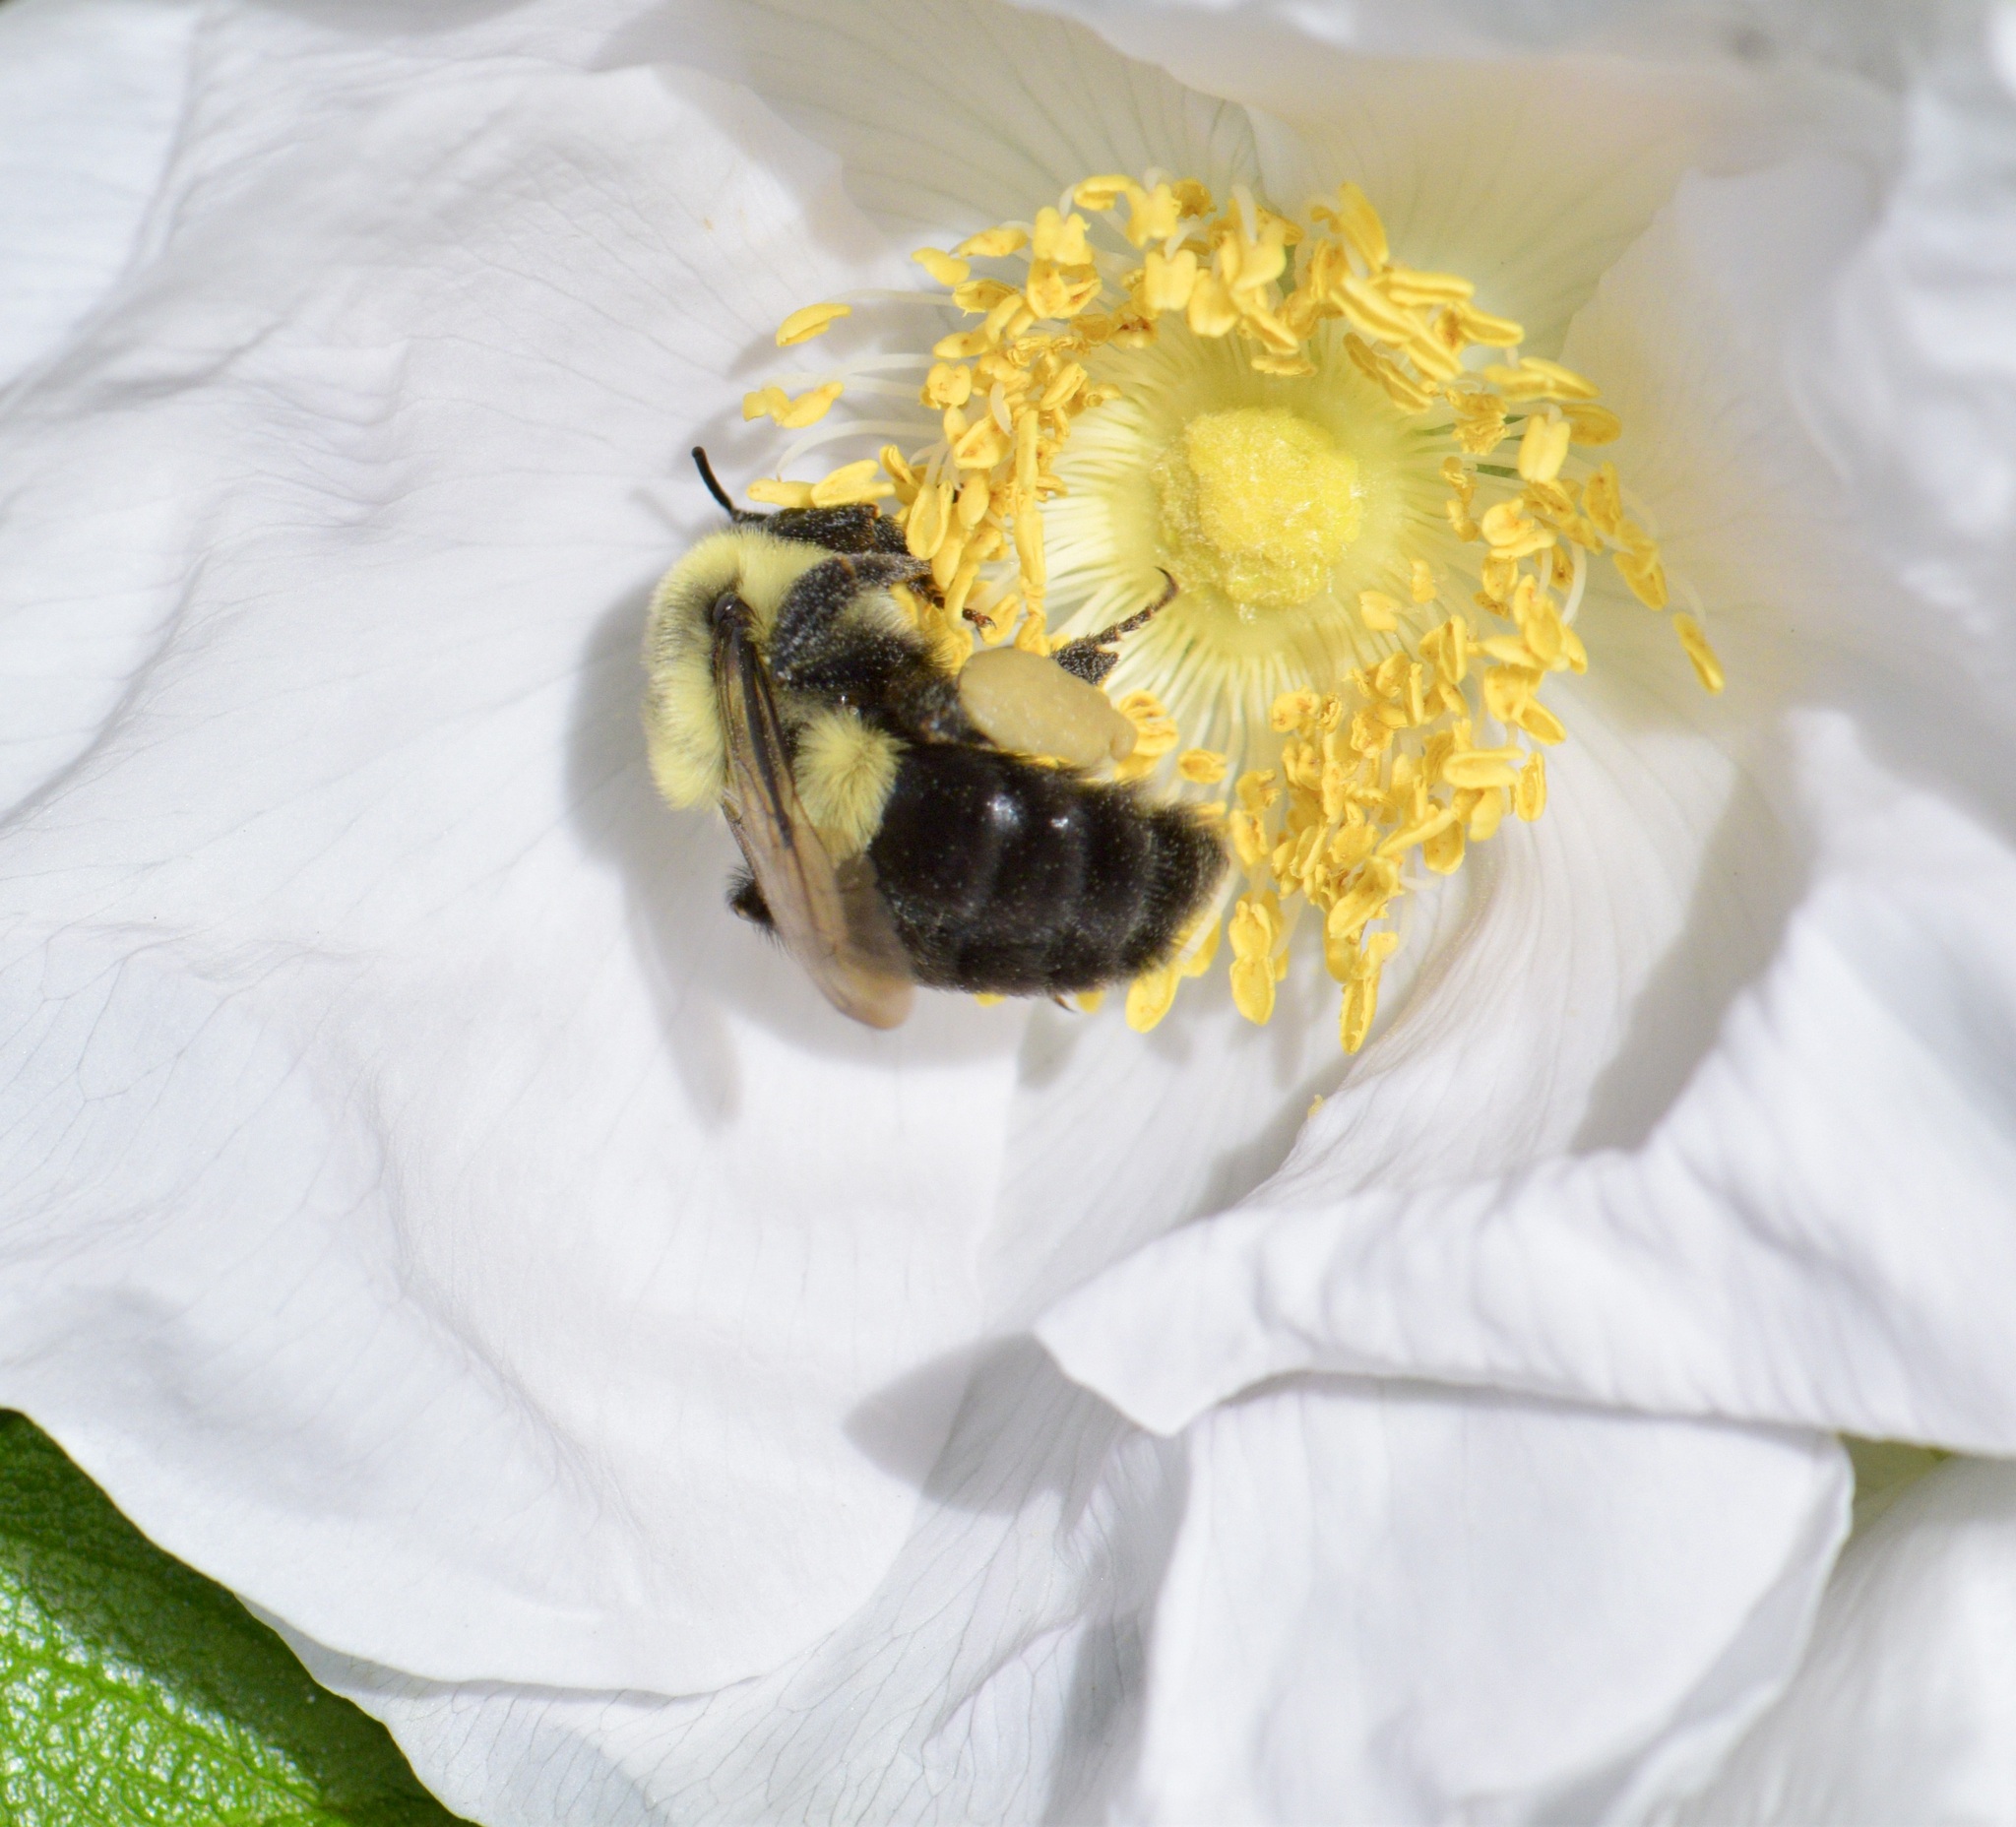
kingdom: Animalia
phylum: Arthropoda
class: Insecta
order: Hymenoptera
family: Apidae
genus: Bombus
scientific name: Bombus impatiens
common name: Common eastern bumble bee
